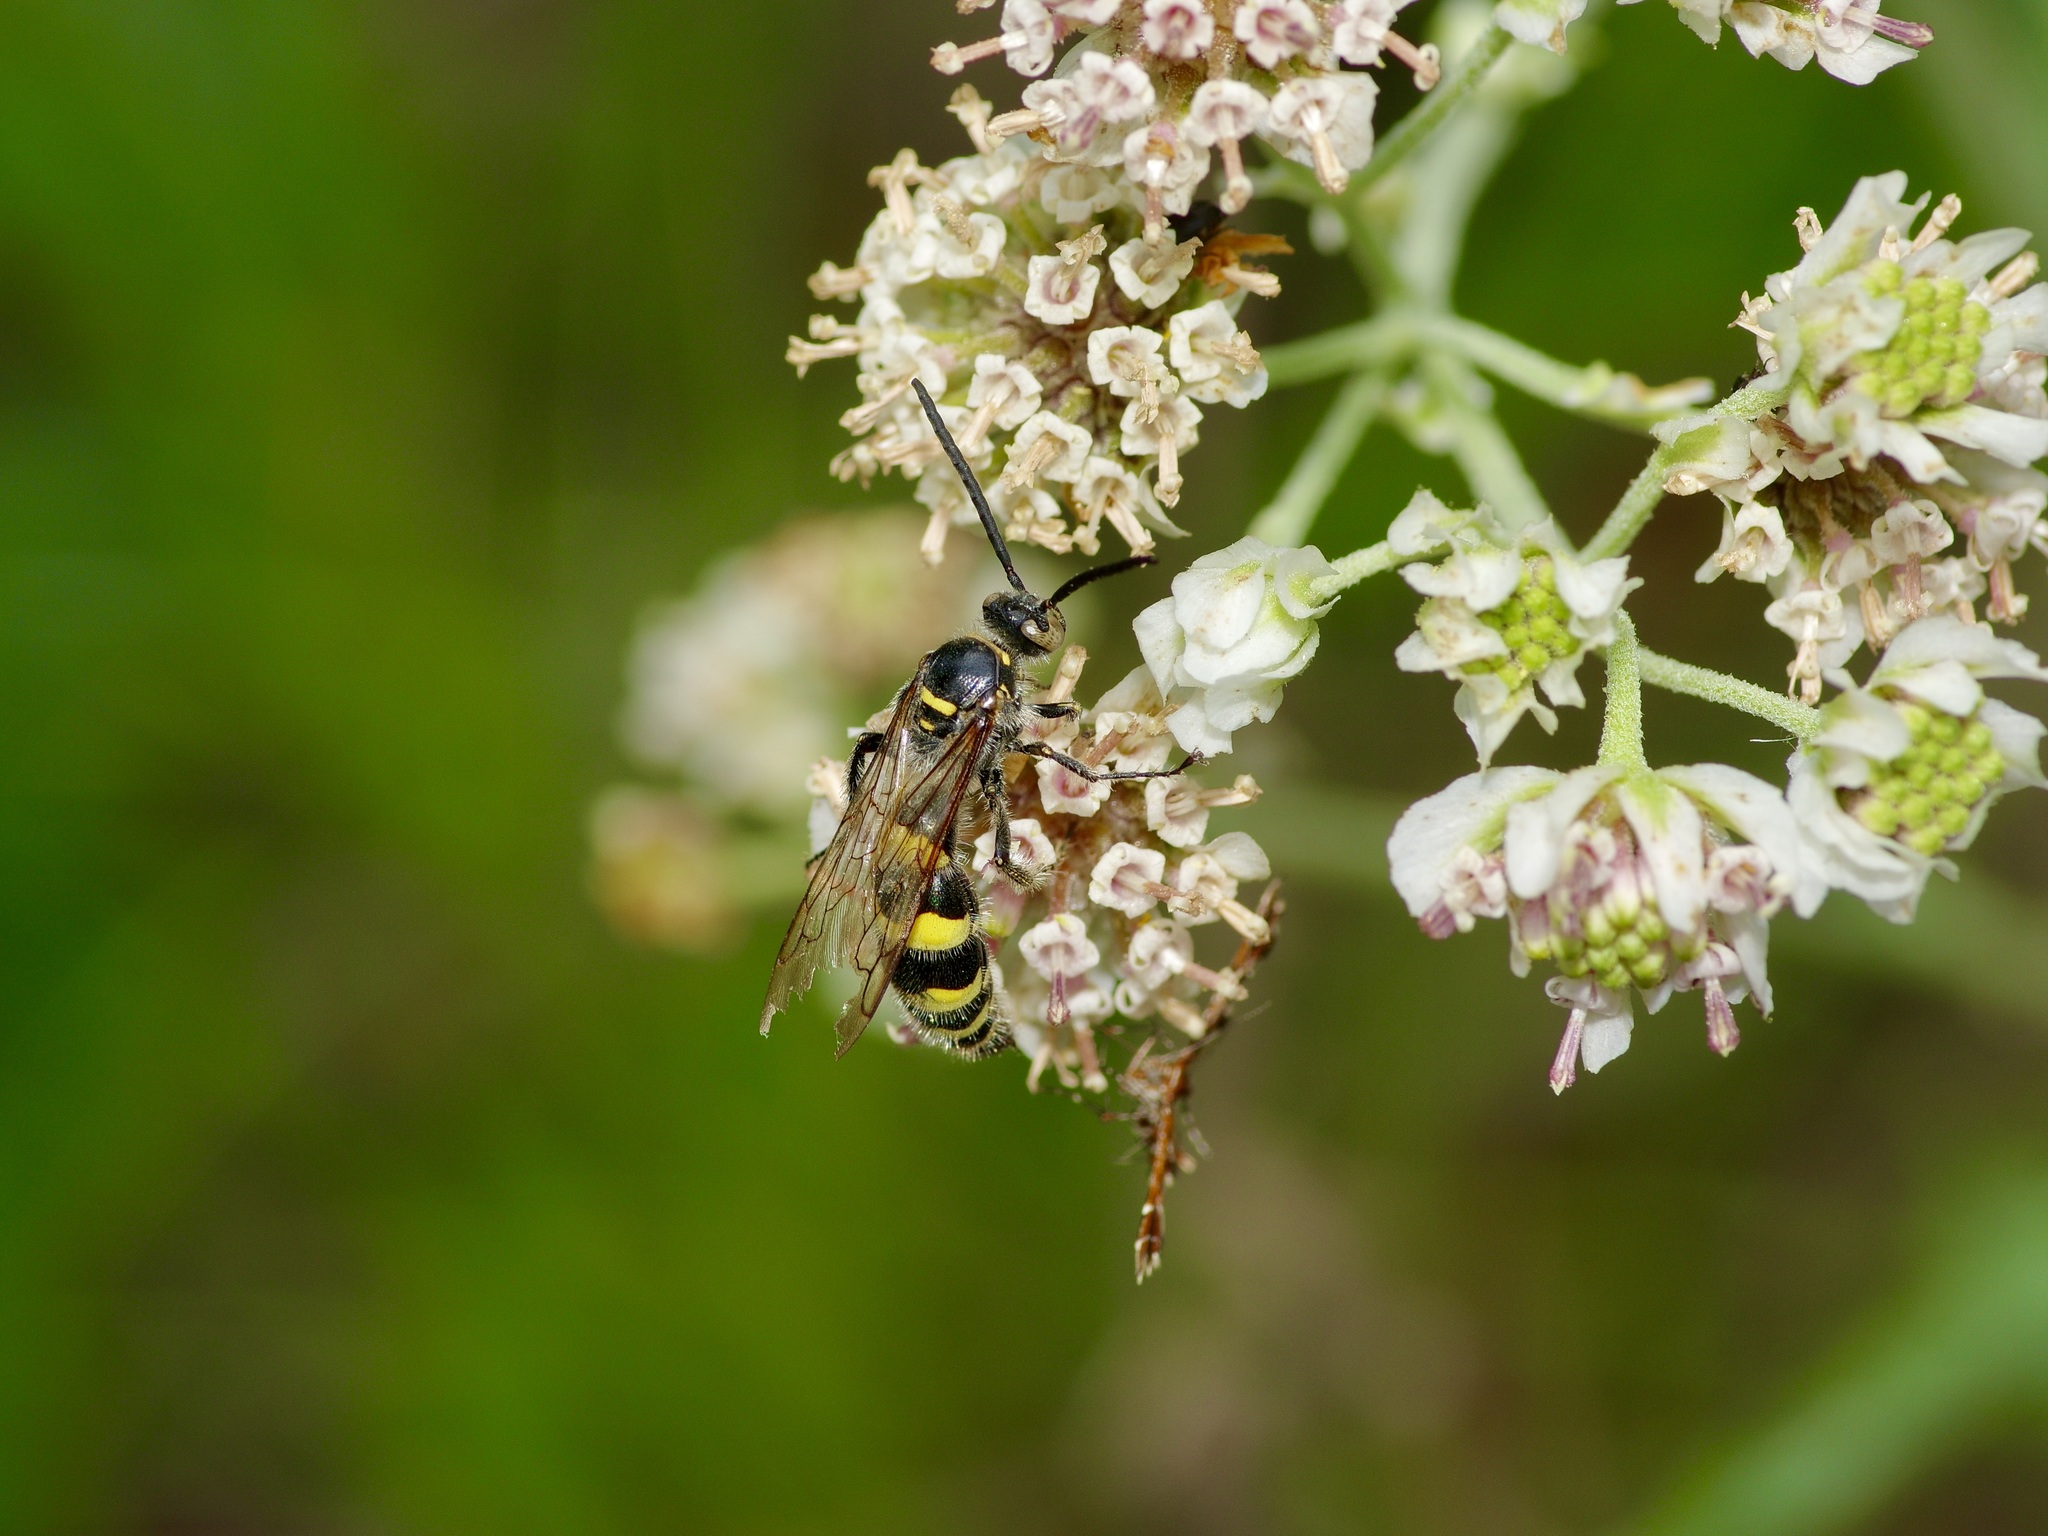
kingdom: Animalia
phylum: Arthropoda
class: Insecta
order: Hymenoptera
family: Scoliidae
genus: Dielis
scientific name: Dielis
